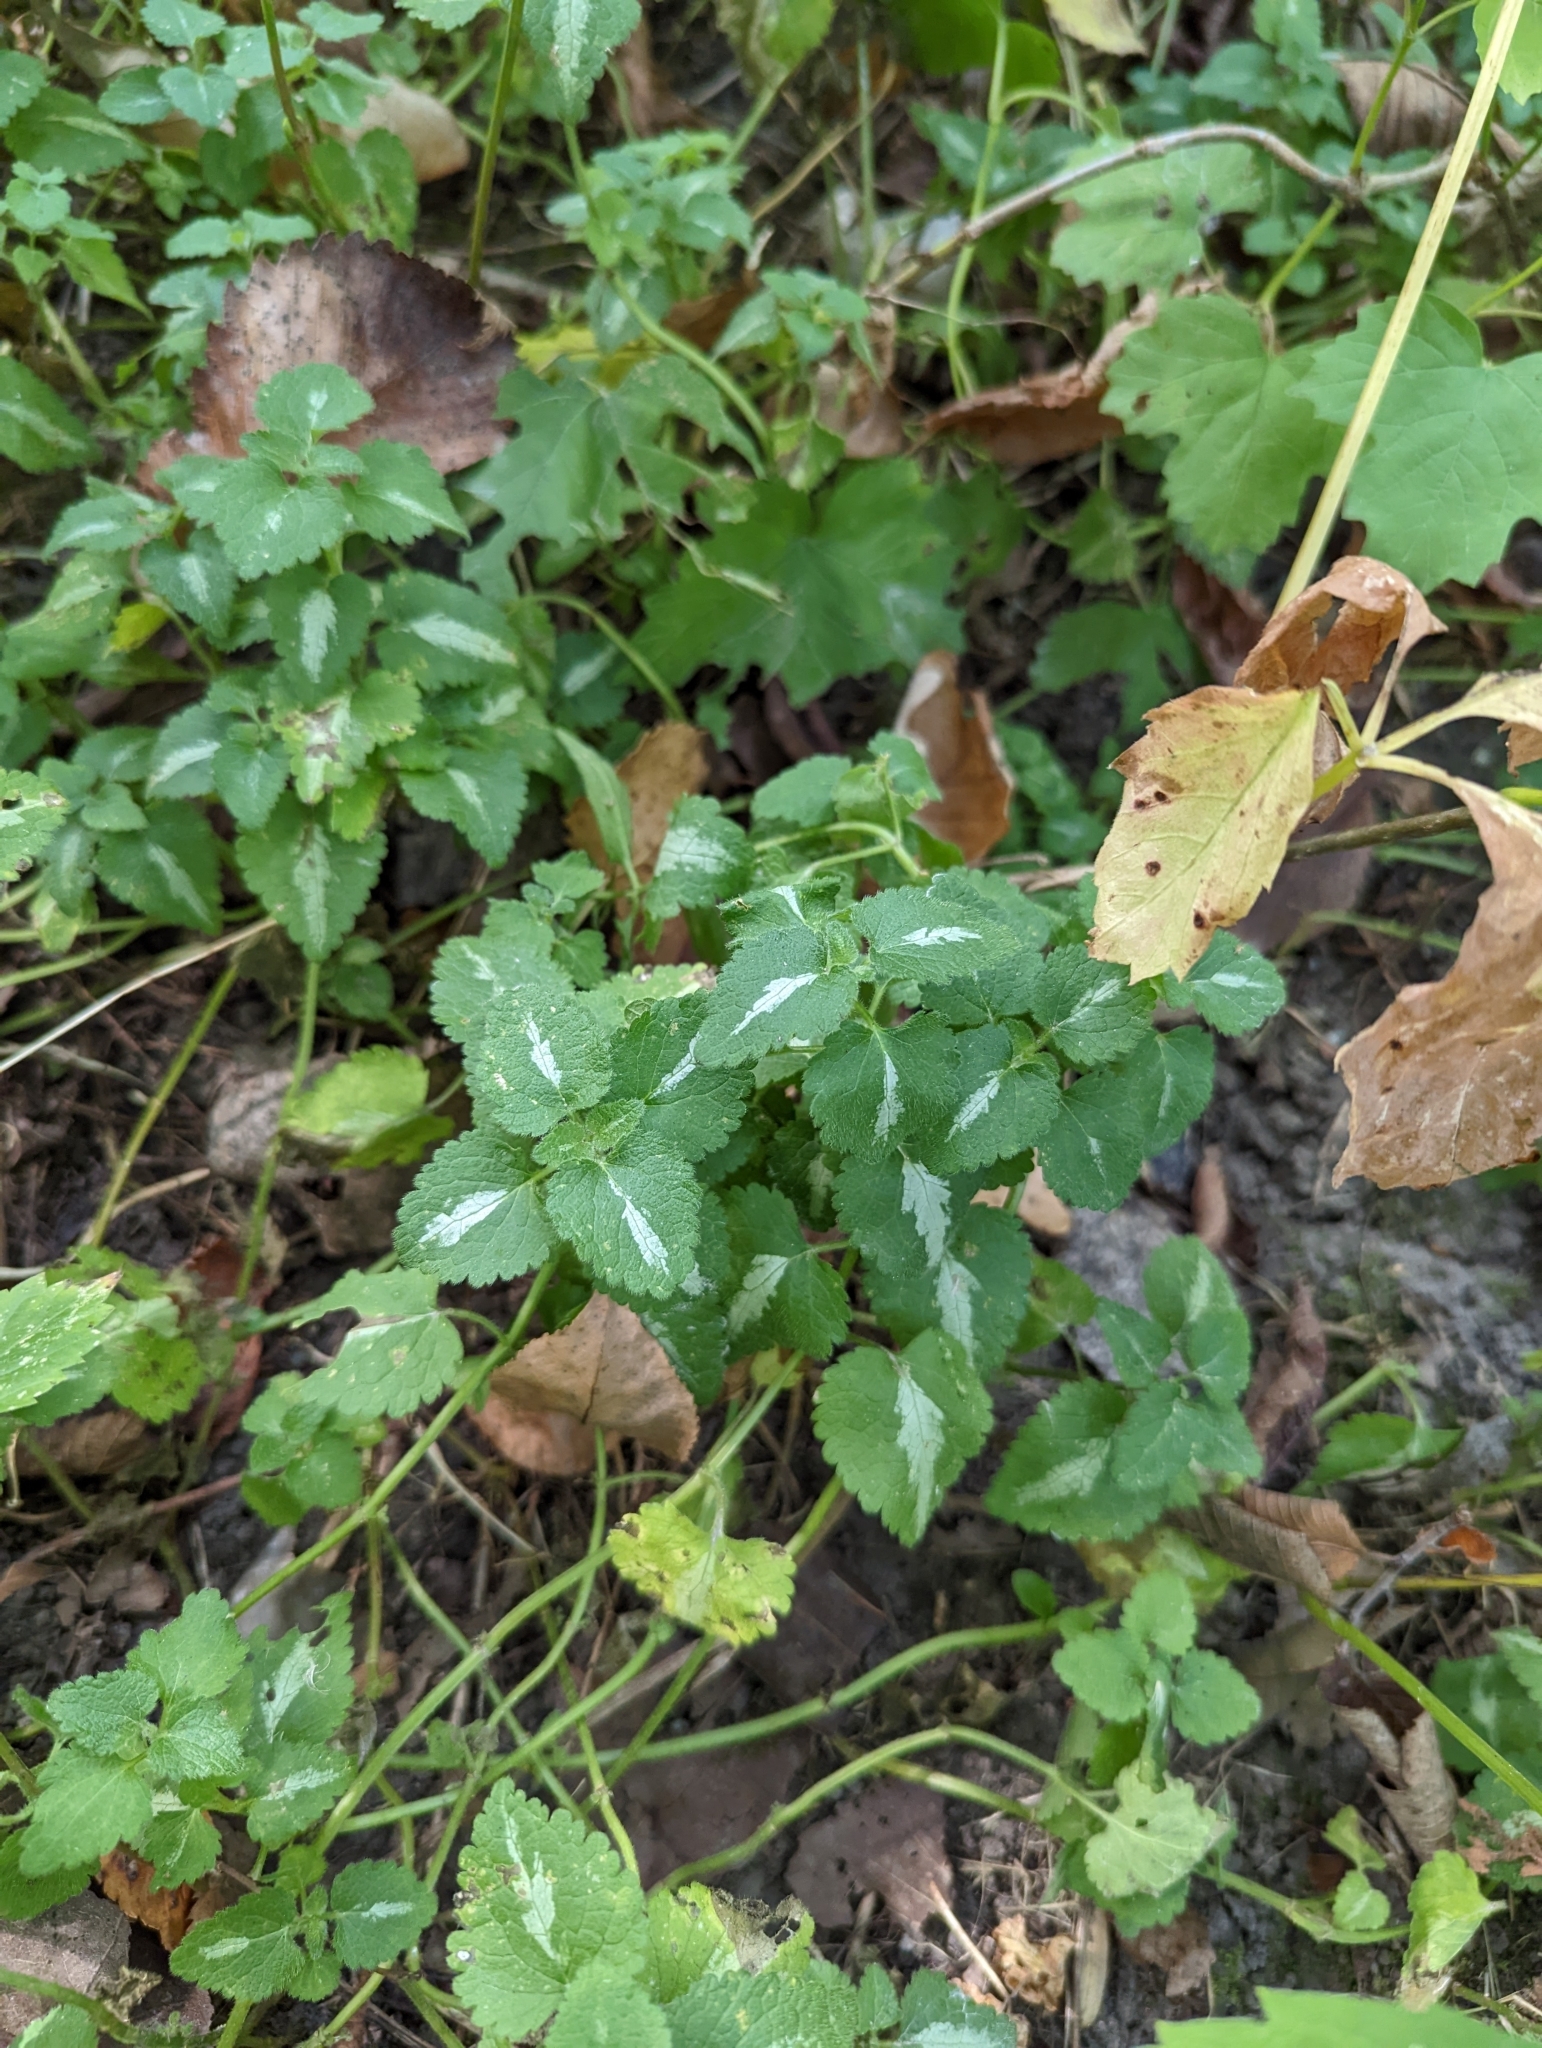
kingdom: Plantae
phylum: Tracheophyta
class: Magnoliopsida
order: Lamiales
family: Lamiaceae
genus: Lamium
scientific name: Lamium maculatum
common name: Spotted dead-nettle
